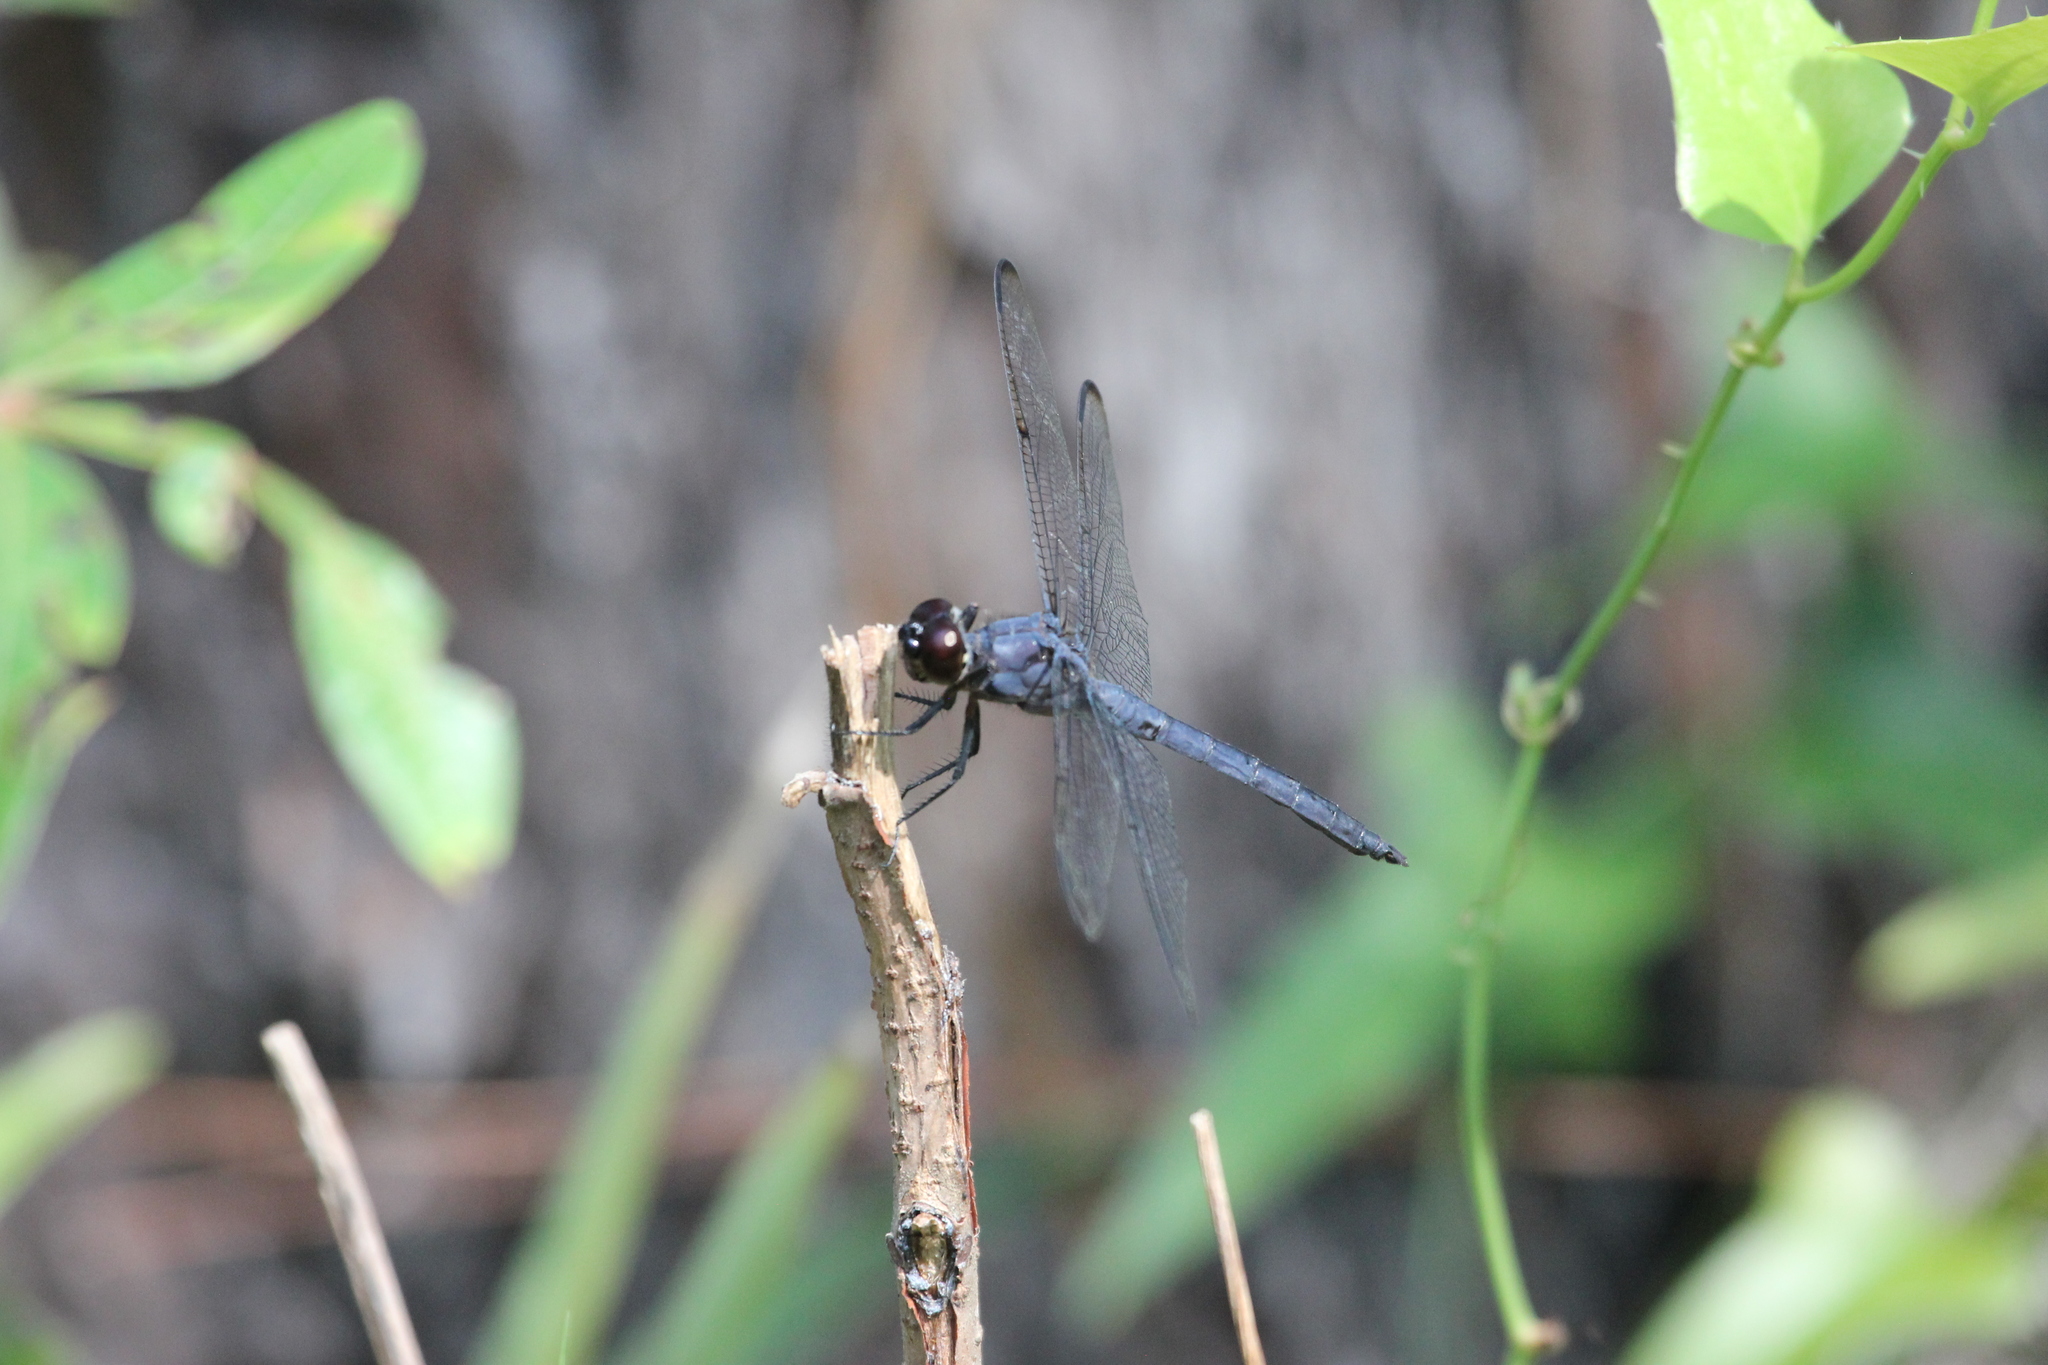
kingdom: Animalia
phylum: Arthropoda
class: Insecta
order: Odonata
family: Libellulidae
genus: Libellula
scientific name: Libellula incesta
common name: Slaty skimmer
